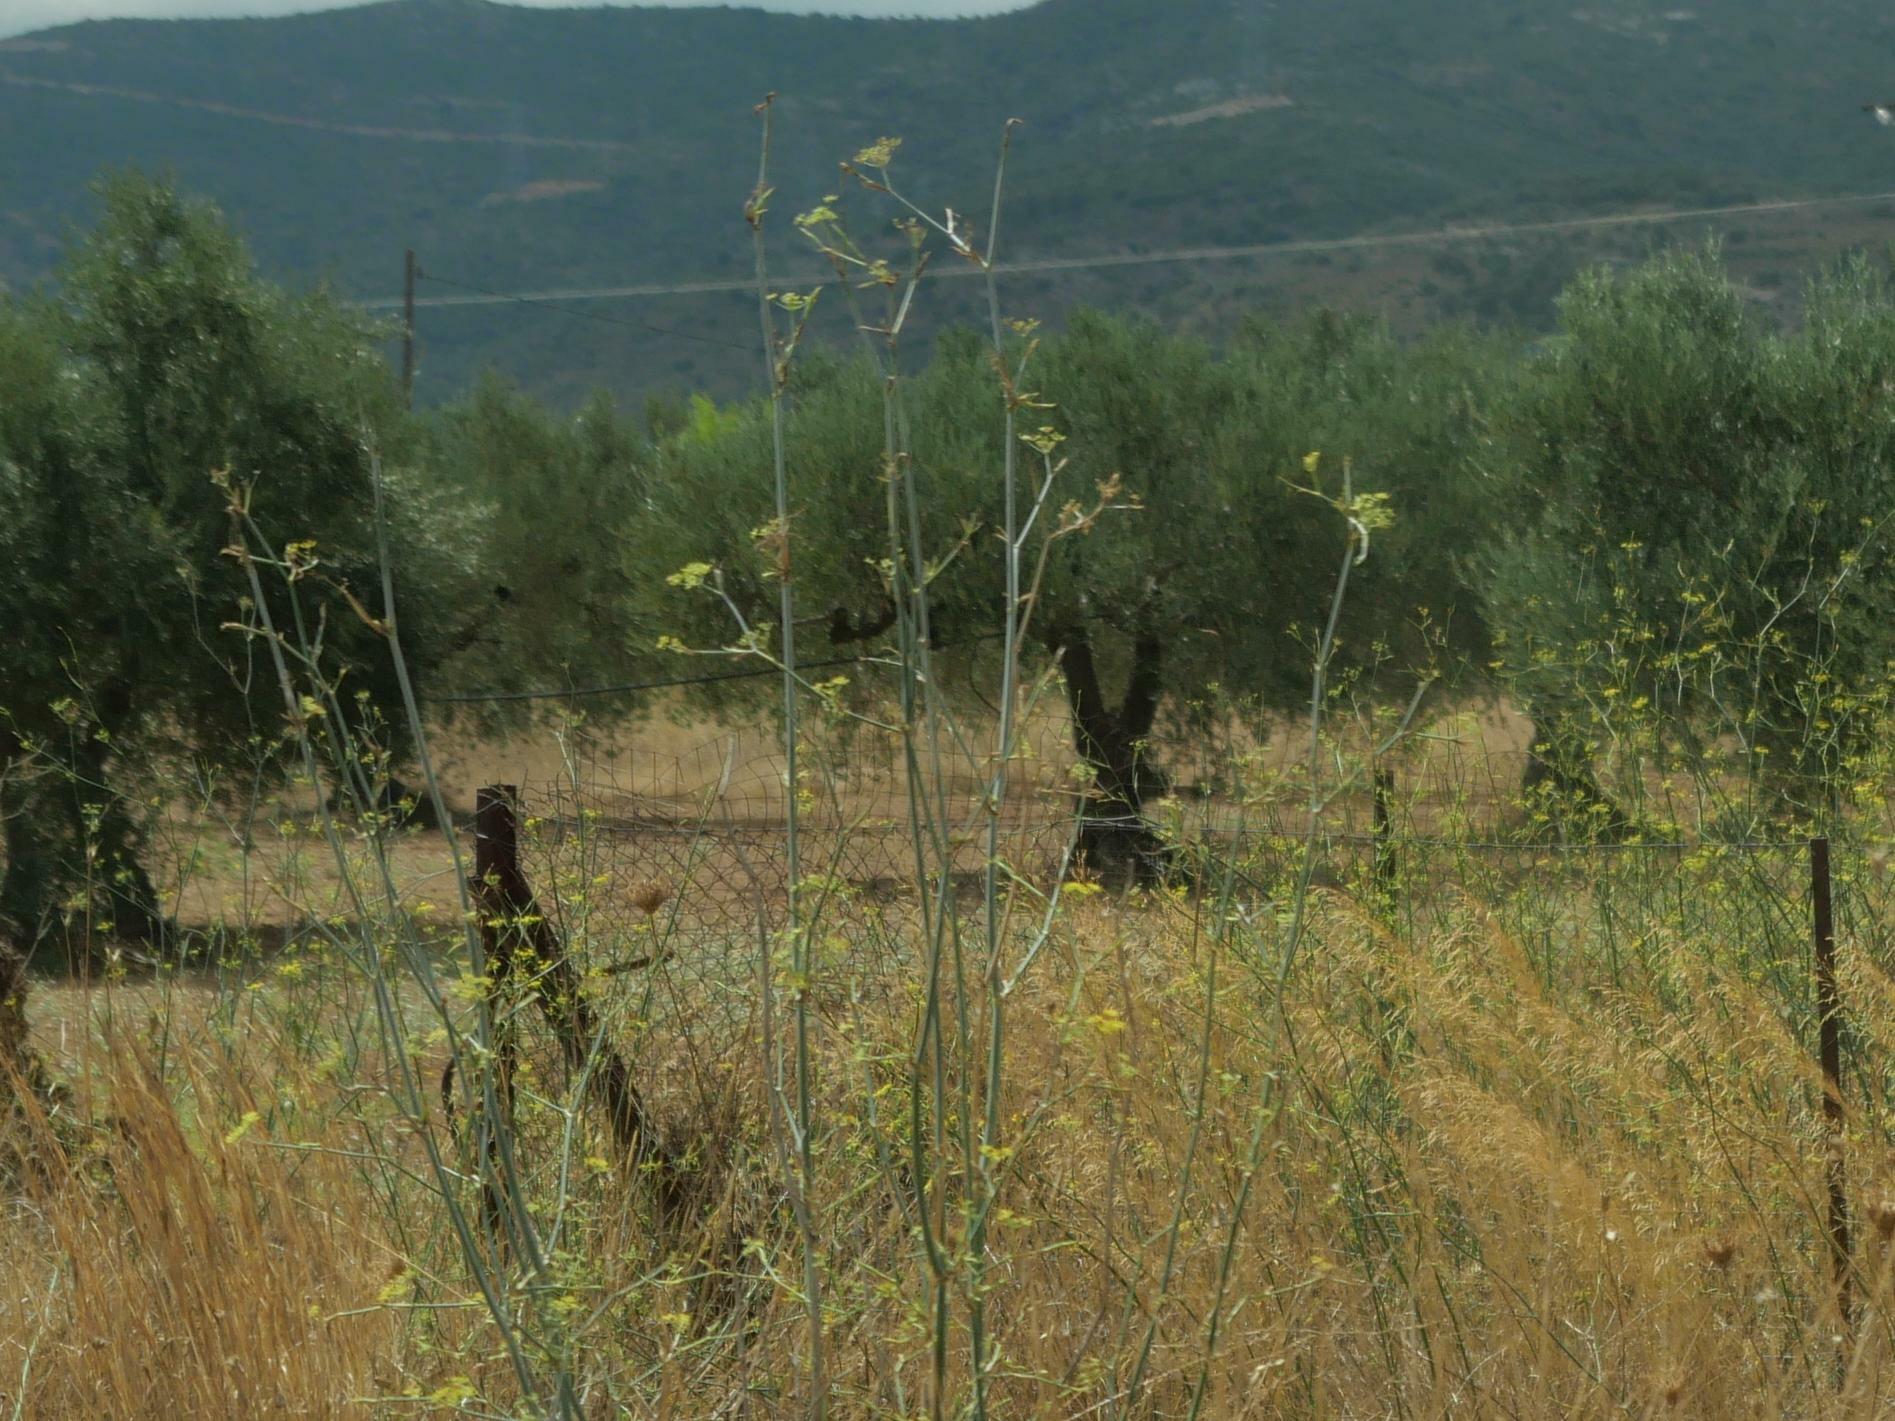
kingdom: Plantae
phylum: Tracheophyta
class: Magnoliopsida
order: Apiales
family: Apiaceae
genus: Foeniculum
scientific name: Foeniculum vulgare
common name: Fennel
